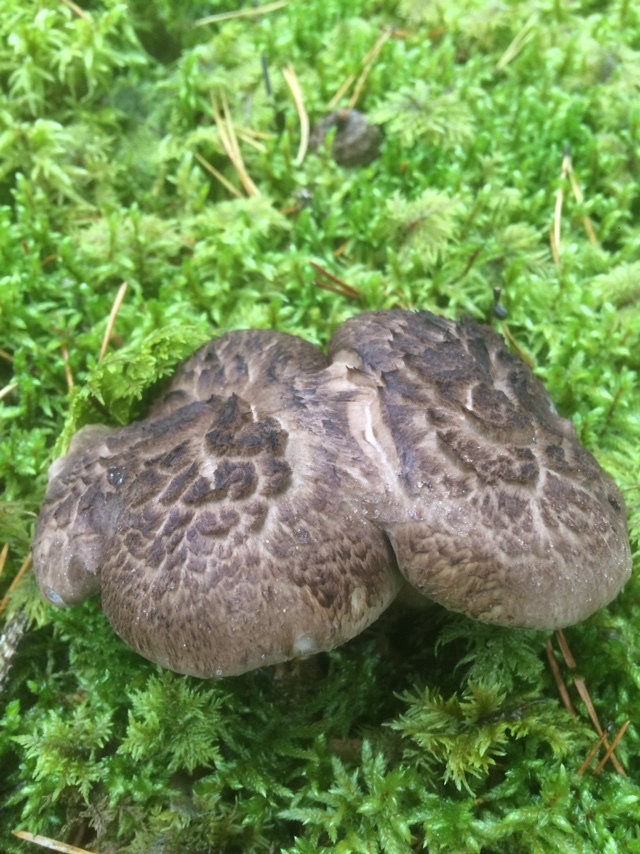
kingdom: Fungi
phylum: Basidiomycota
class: Agaricomycetes
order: Thelephorales
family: Bankeraceae
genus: Sarcodon
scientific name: Sarcodon squamosus
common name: Scaly tooth
